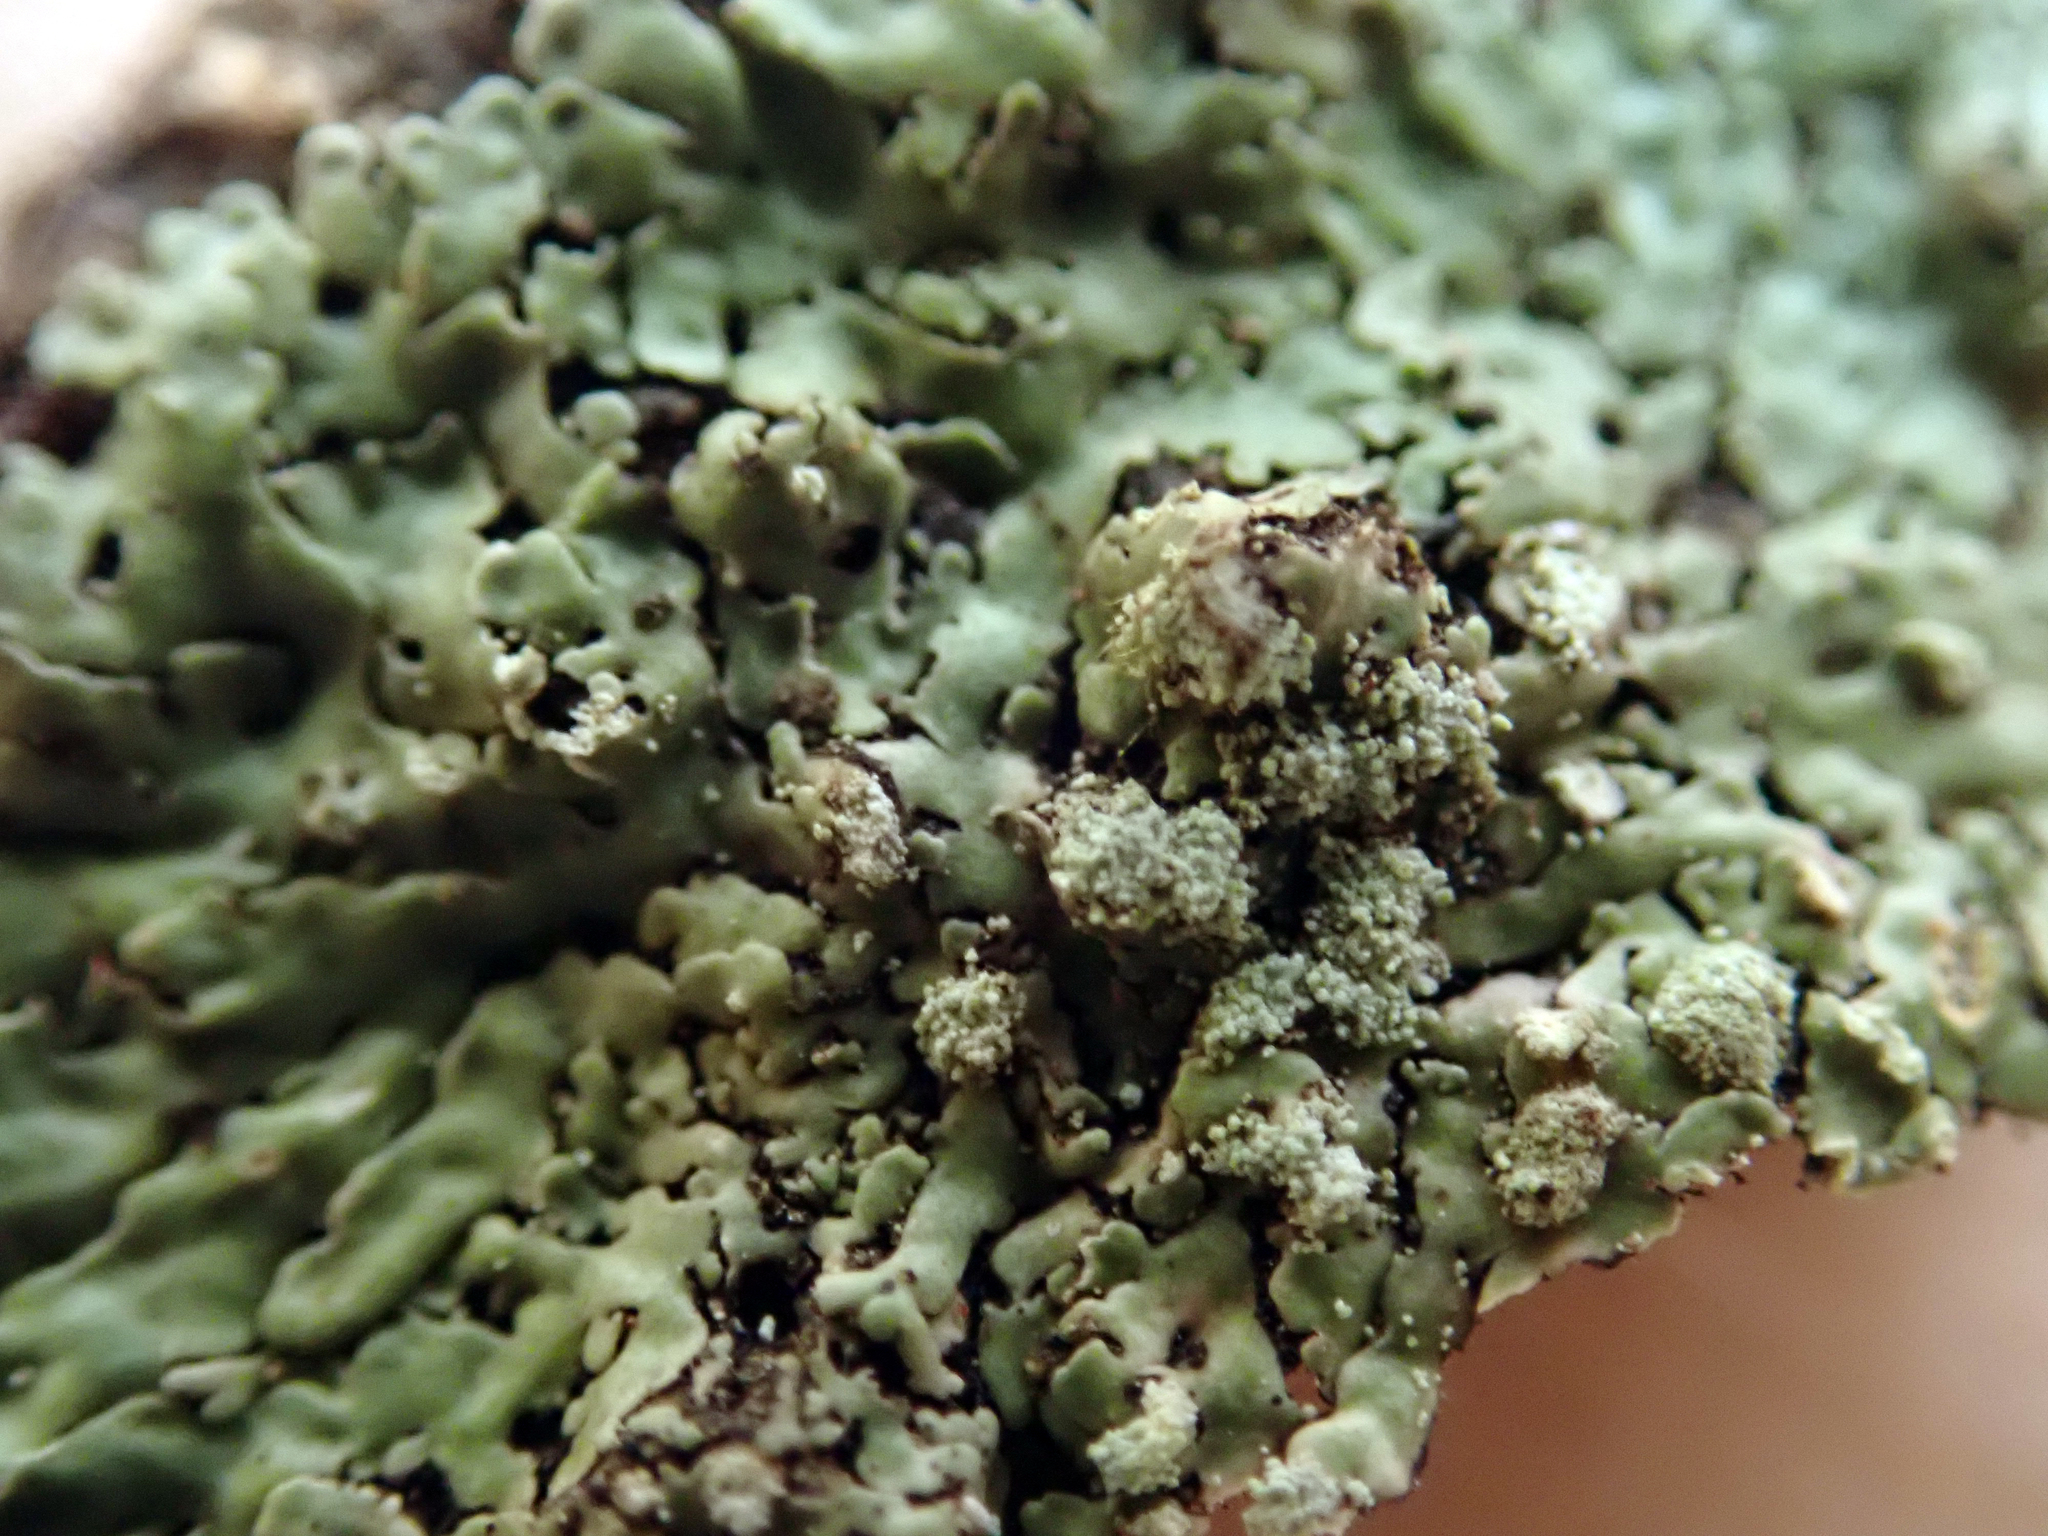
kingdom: Fungi
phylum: Ascomycota
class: Lecanoromycetes
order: Caliciales
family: Caliciaceae
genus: Pyxine
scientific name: Pyxine subcinerea
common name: Mustard lichen
